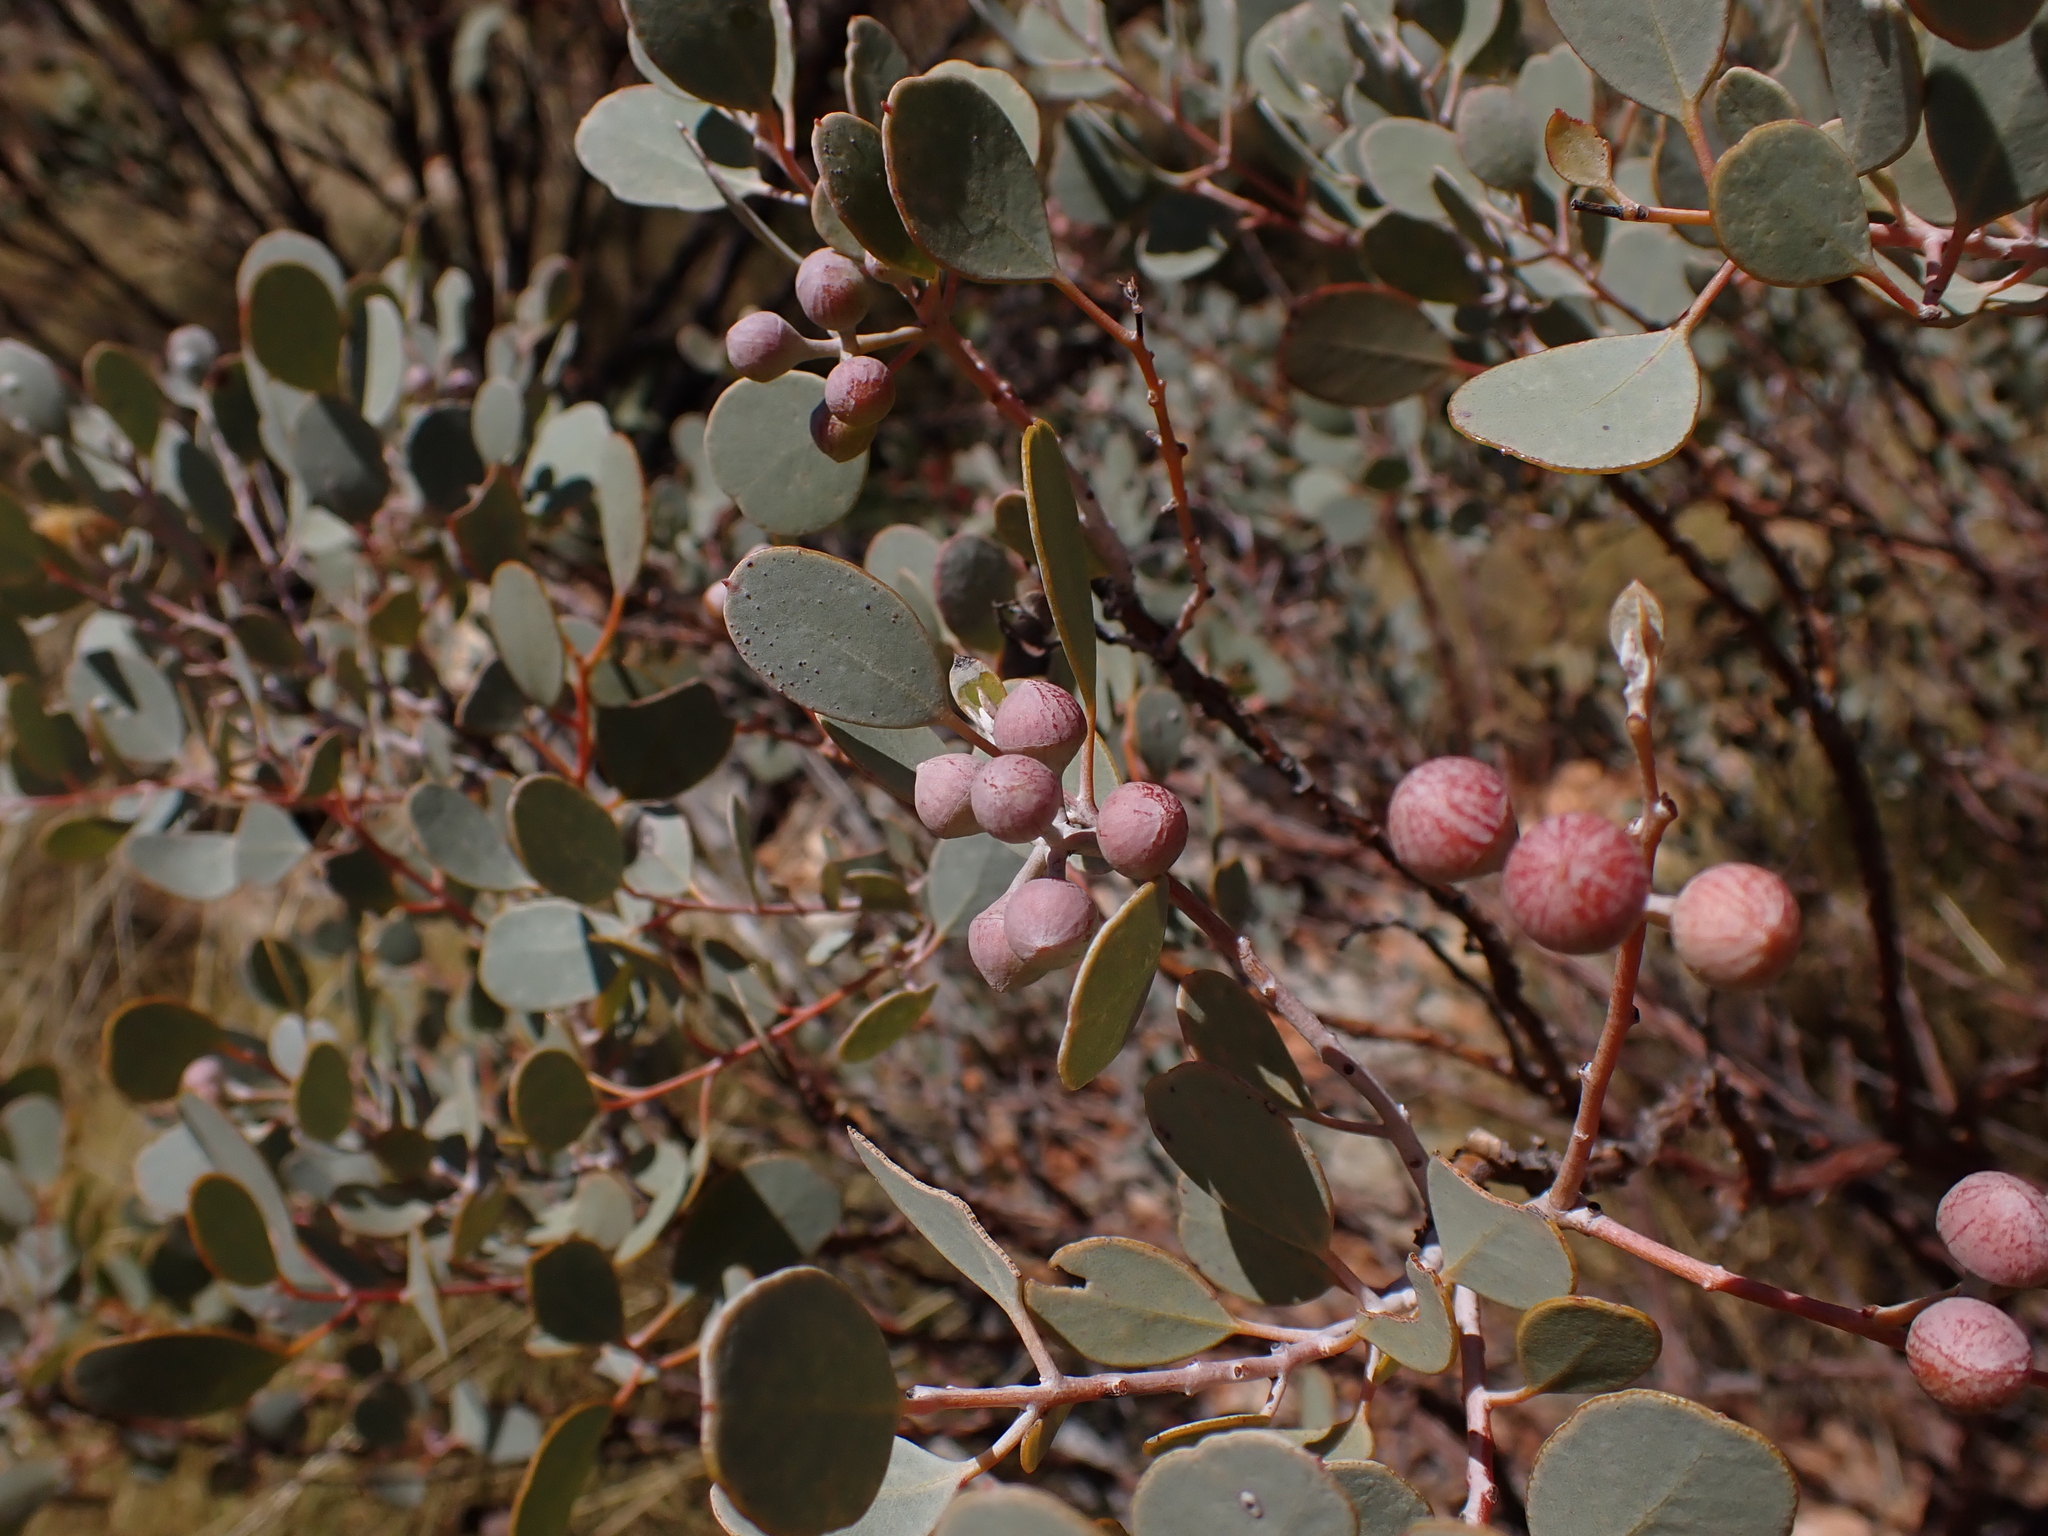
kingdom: Plantae
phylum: Tracheophyta
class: Magnoliopsida
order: Myrtales
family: Myrtaceae
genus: Eucalyptus
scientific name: Eucalyptus minniritchi
